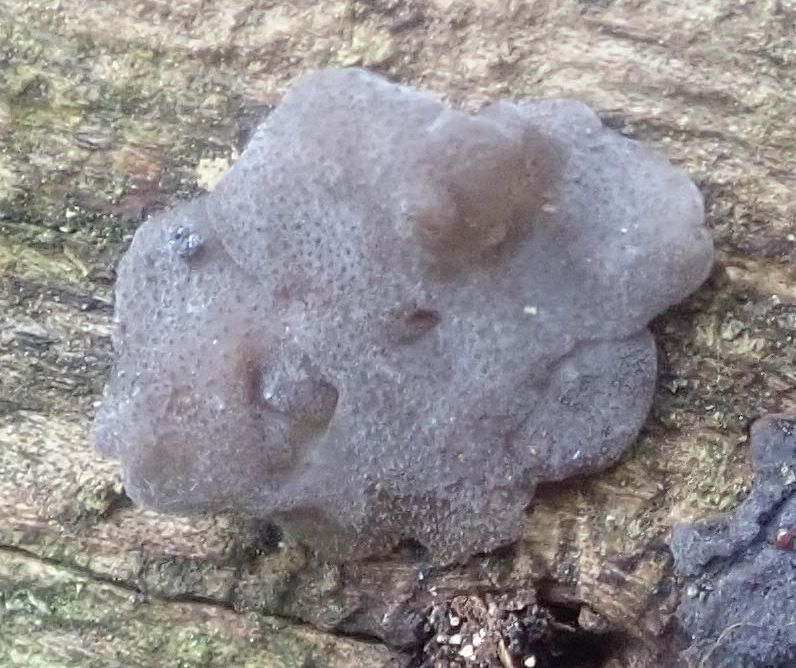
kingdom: Fungi
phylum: Basidiomycota
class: Agaricomycetes
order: Auriculariales
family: Auriculariaceae
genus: Tremellochaete
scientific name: Tremellochaete
